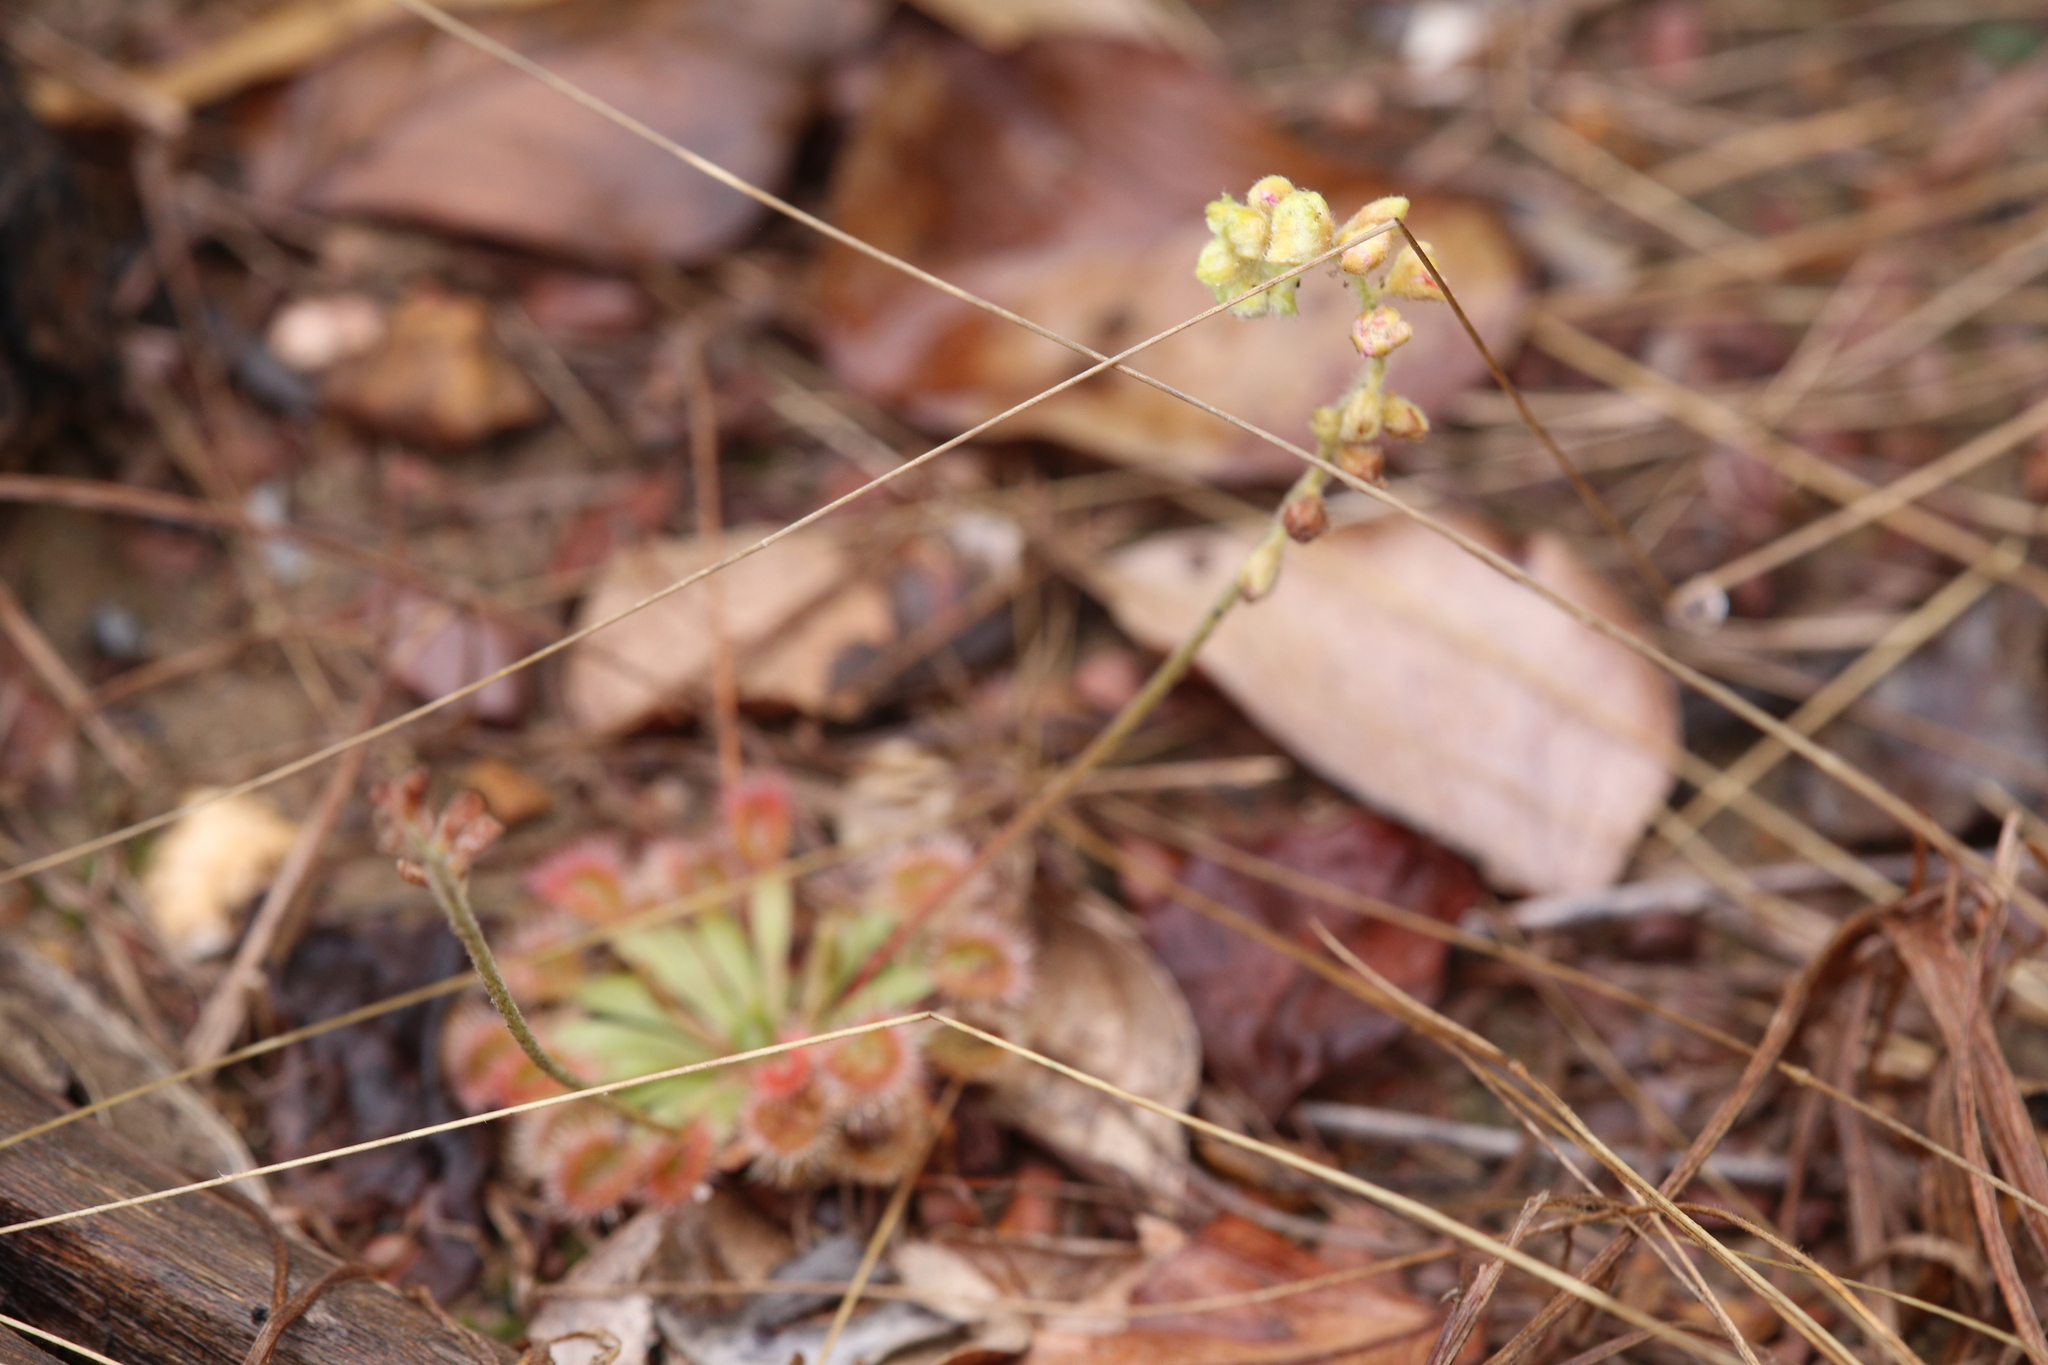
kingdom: Plantae
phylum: Tracheophyta
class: Magnoliopsida
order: Caryophyllales
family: Droseraceae
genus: Drosera
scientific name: Drosera darwinensis
